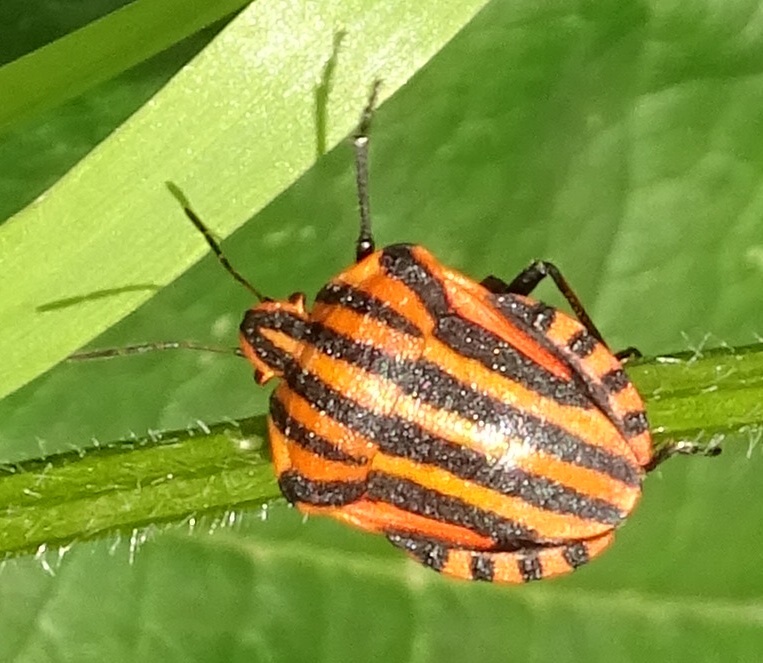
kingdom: Animalia
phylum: Arthropoda
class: Insecta
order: Hemiptera
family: Pentatomidae
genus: Graphosoma
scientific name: Graphosoma italicum
